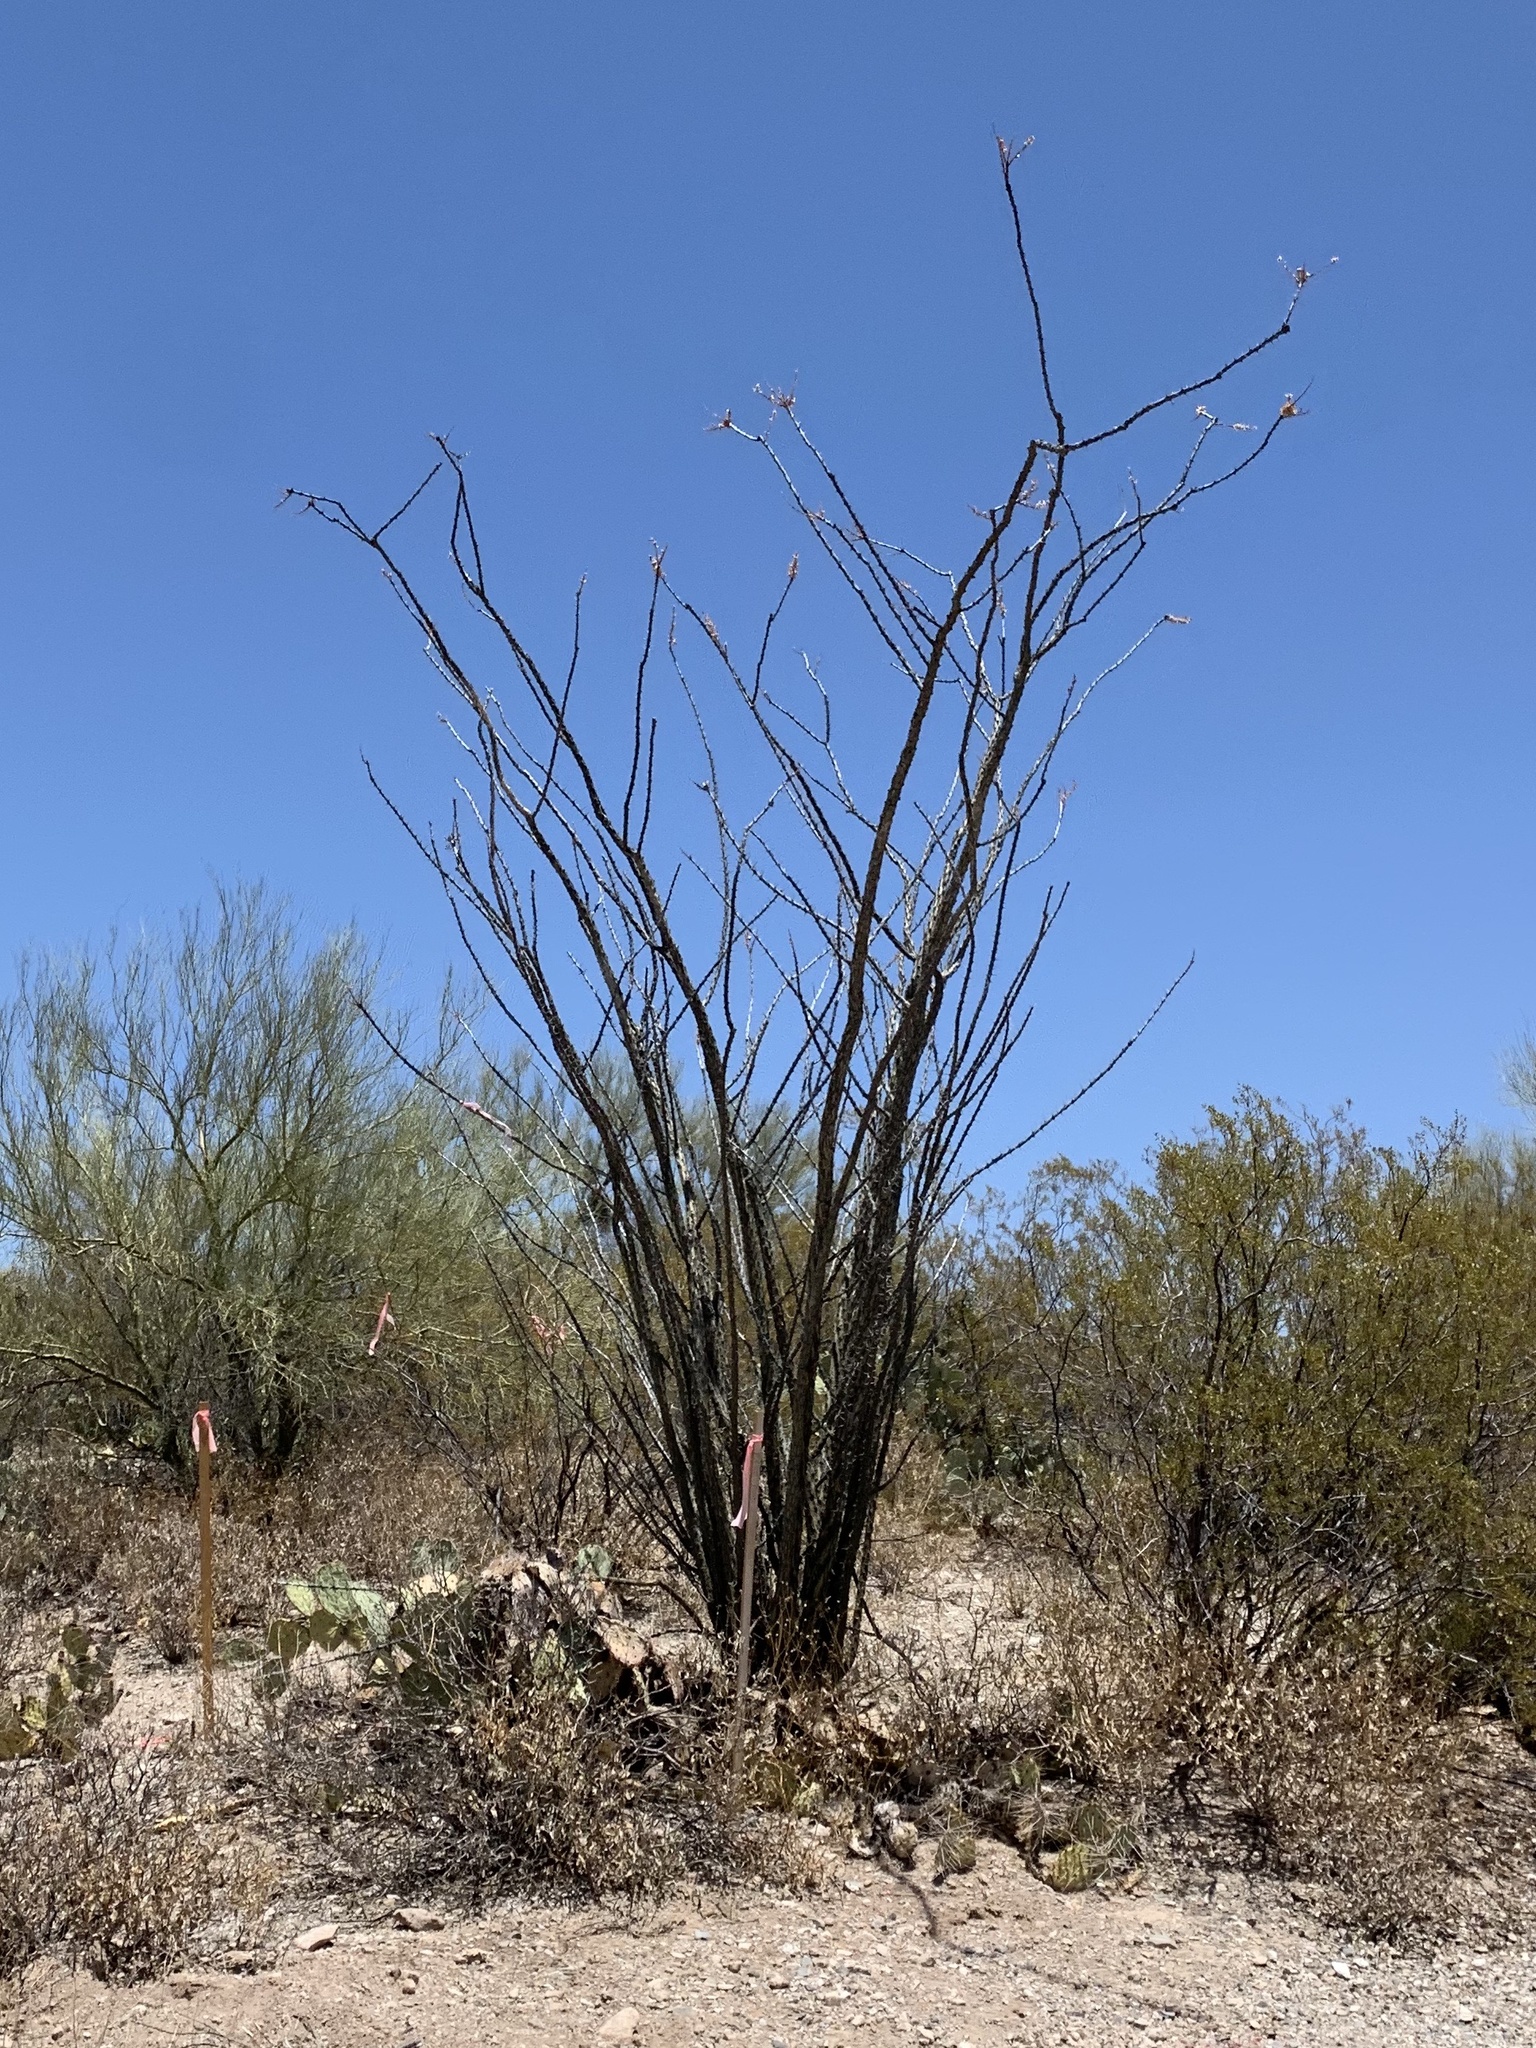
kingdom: Plantae
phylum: Tracheophyta
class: Magnoliopsida
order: Ericales
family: Fouquieriaceae
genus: Fouquieria
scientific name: Fouquieria splendens
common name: Vine-cactus
